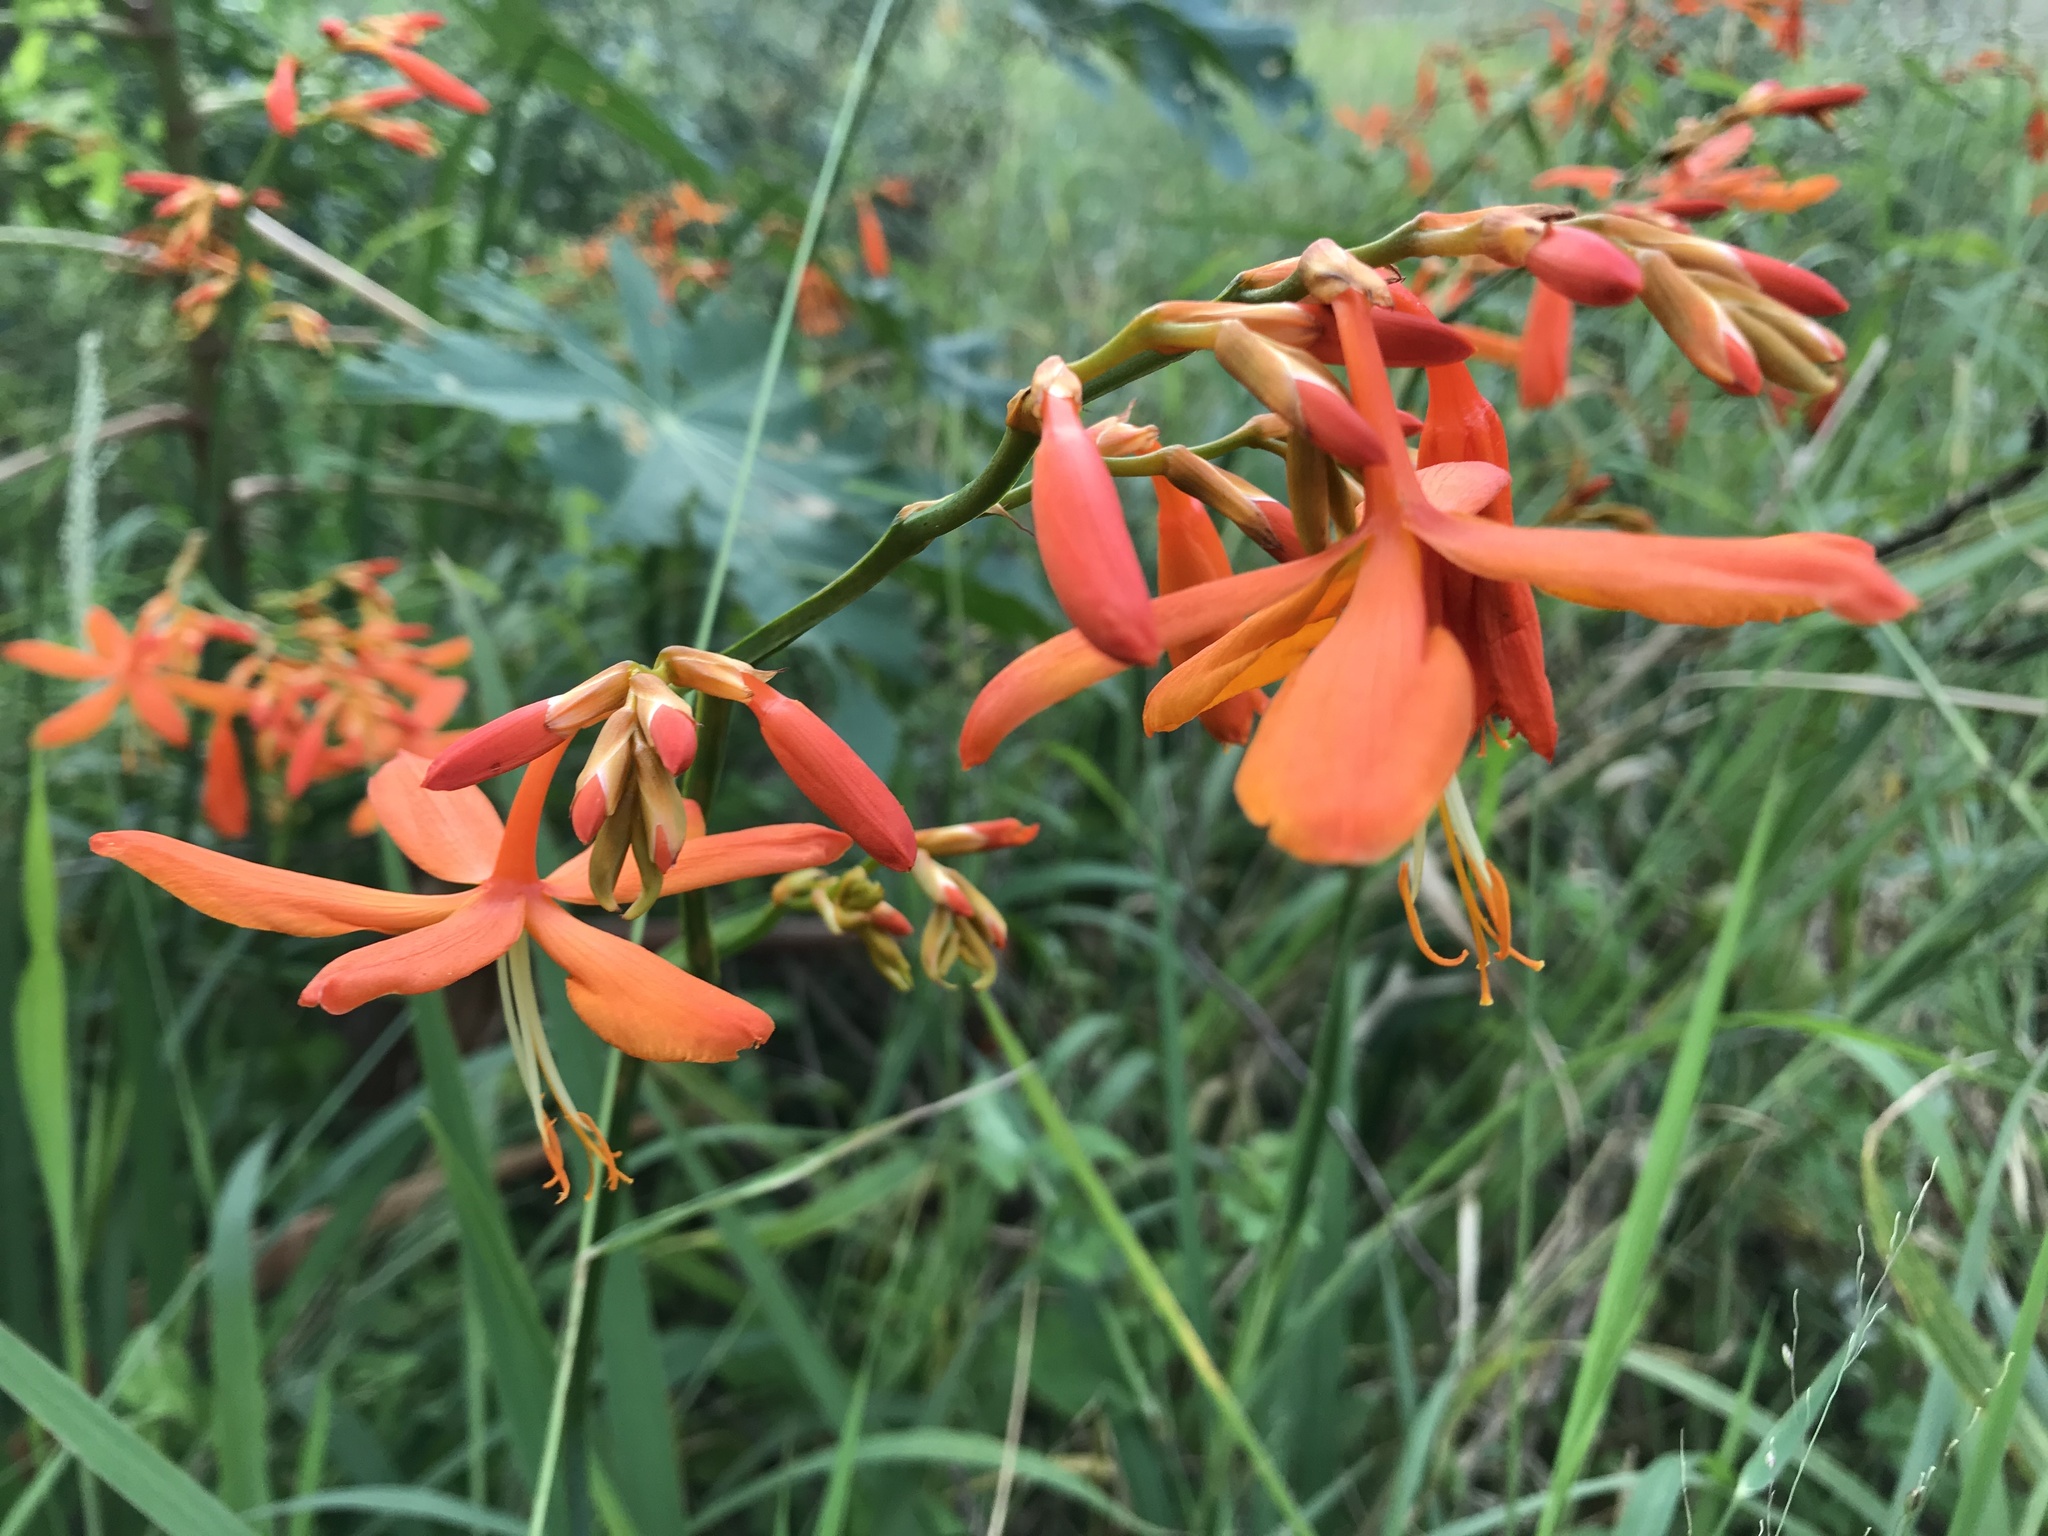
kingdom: Plantae
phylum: Tracheophyta
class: Liliopsida
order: Asparagales
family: Iridaceae
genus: Crocosmia
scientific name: Crocosmia aurea
